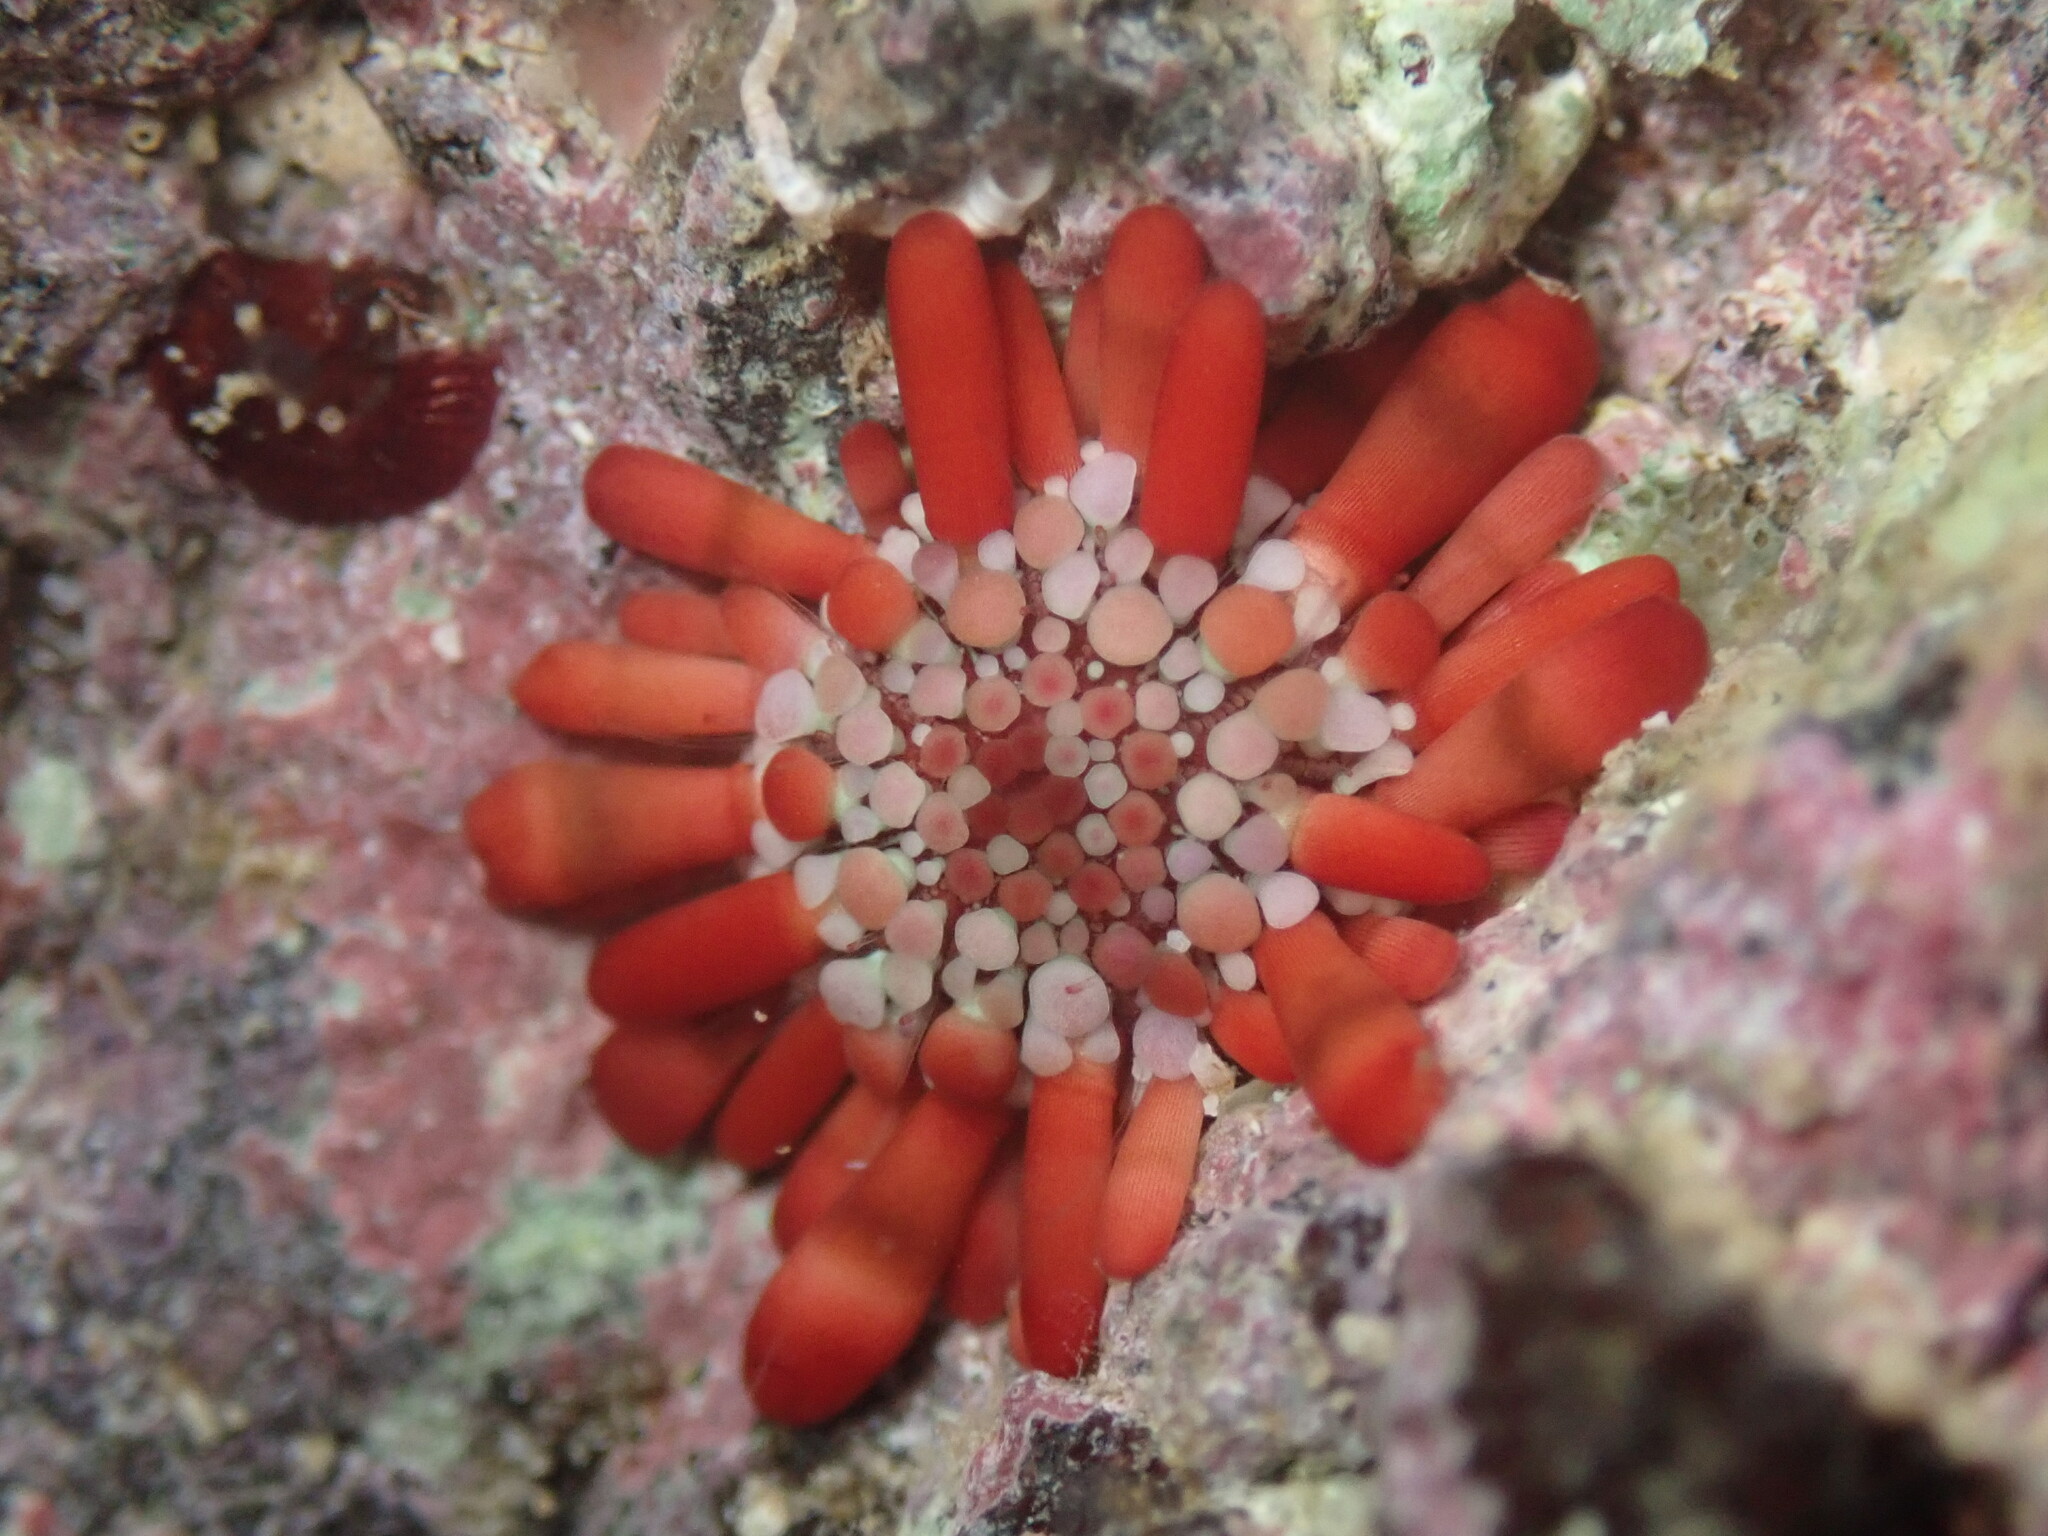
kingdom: Animalia
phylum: Echinodermata
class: Echinoidea
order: Camarodonta
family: Echinometridae
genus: Heterocentrotus
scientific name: Heterocentrotus mamillatus
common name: Slate pencil urchin
